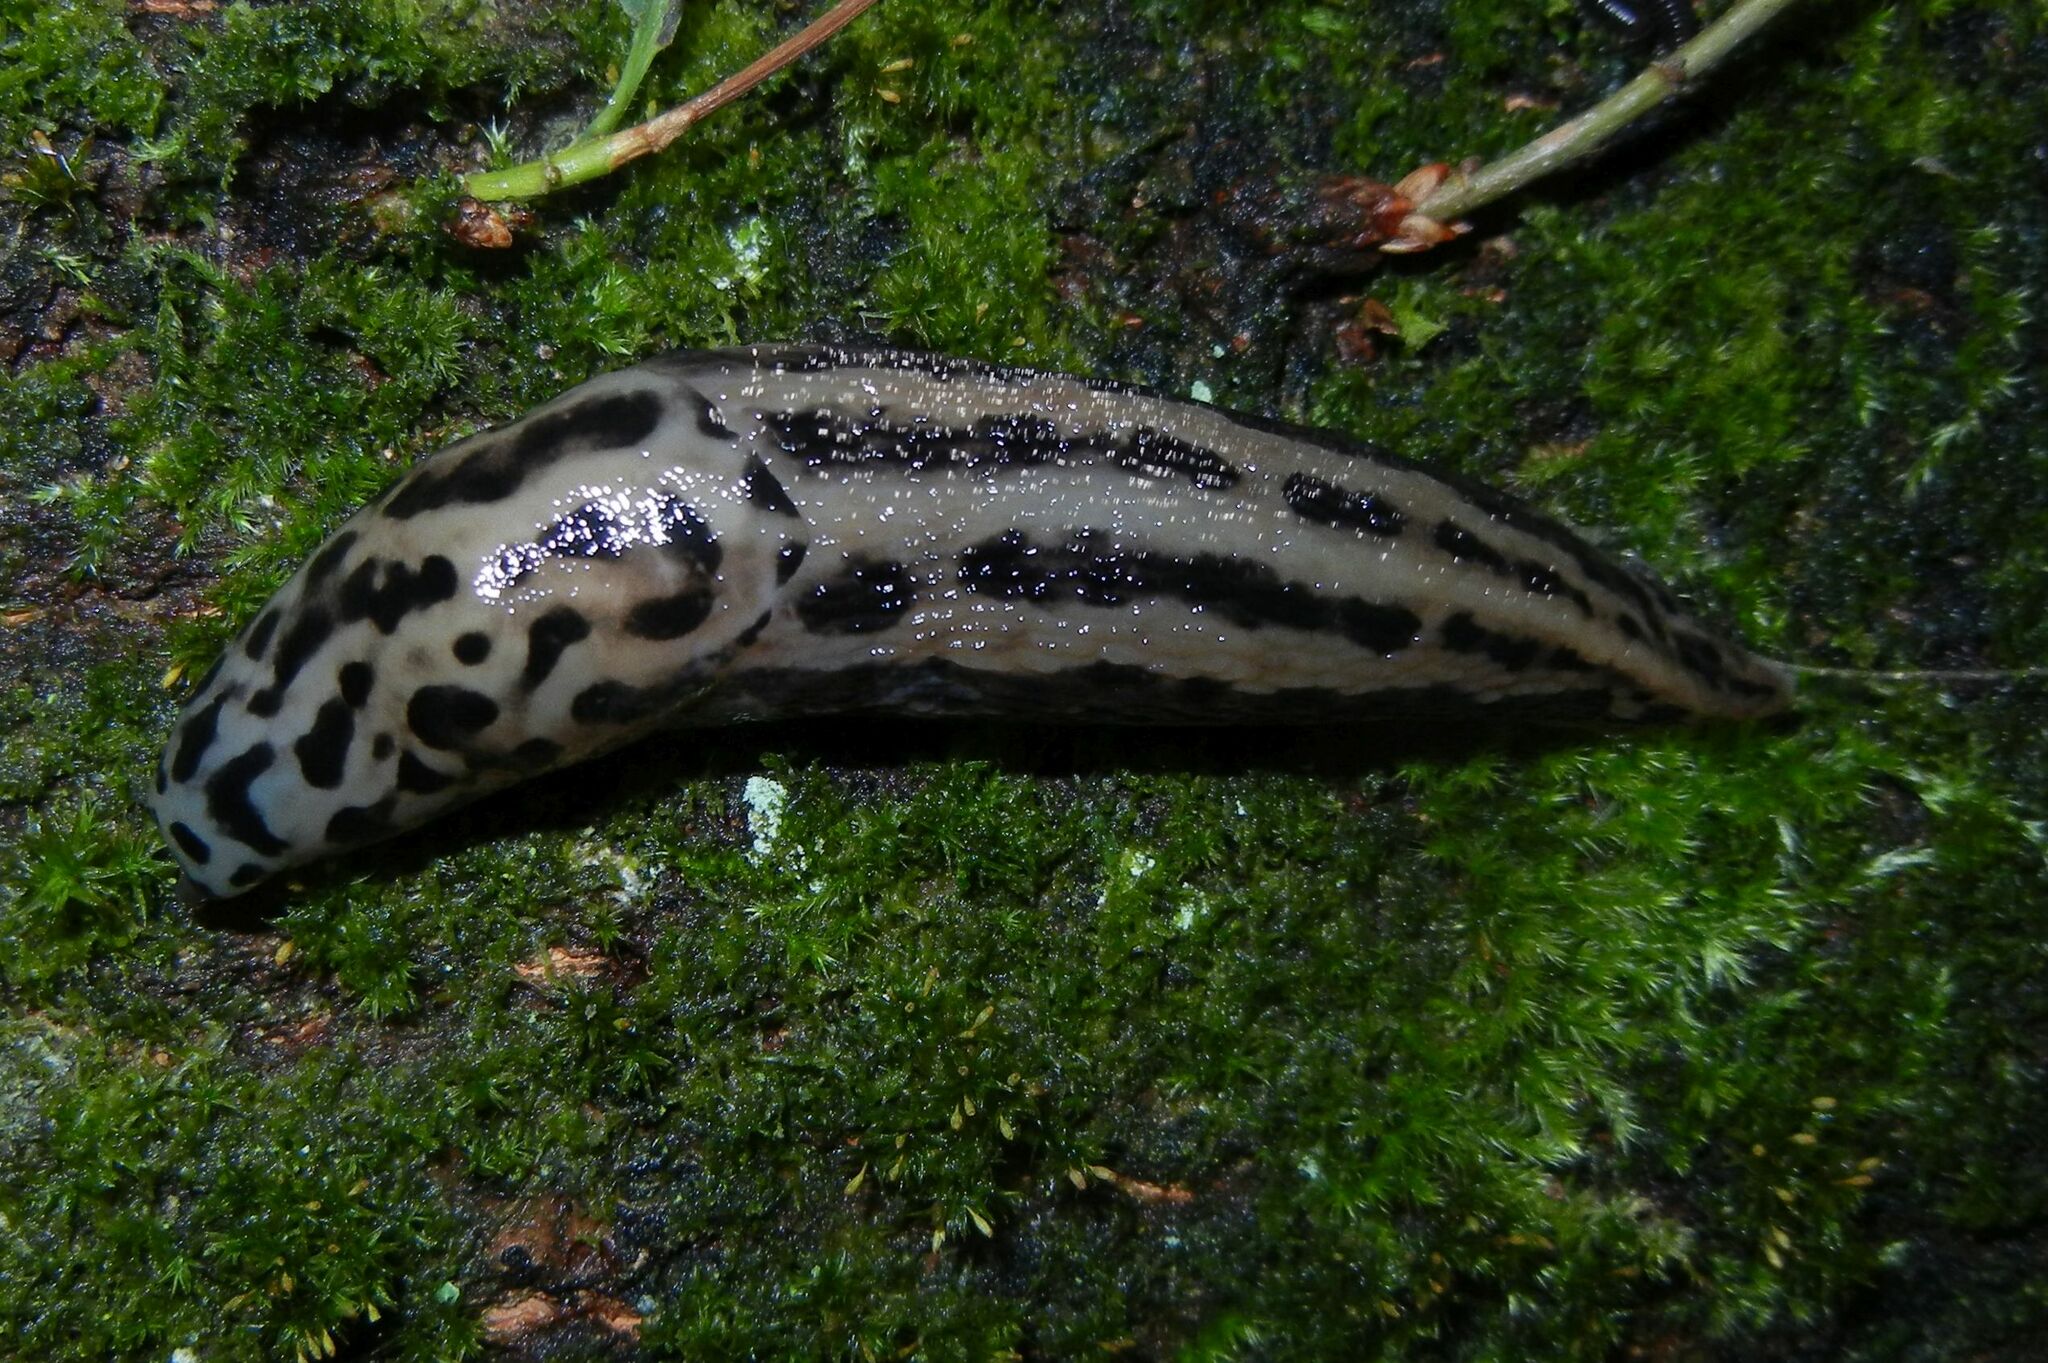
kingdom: Animalia
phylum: Mollusca
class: Gastropoda
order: Stylommatophora
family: Limacidae
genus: Limax
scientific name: Limax maximus
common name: Great grey slug
